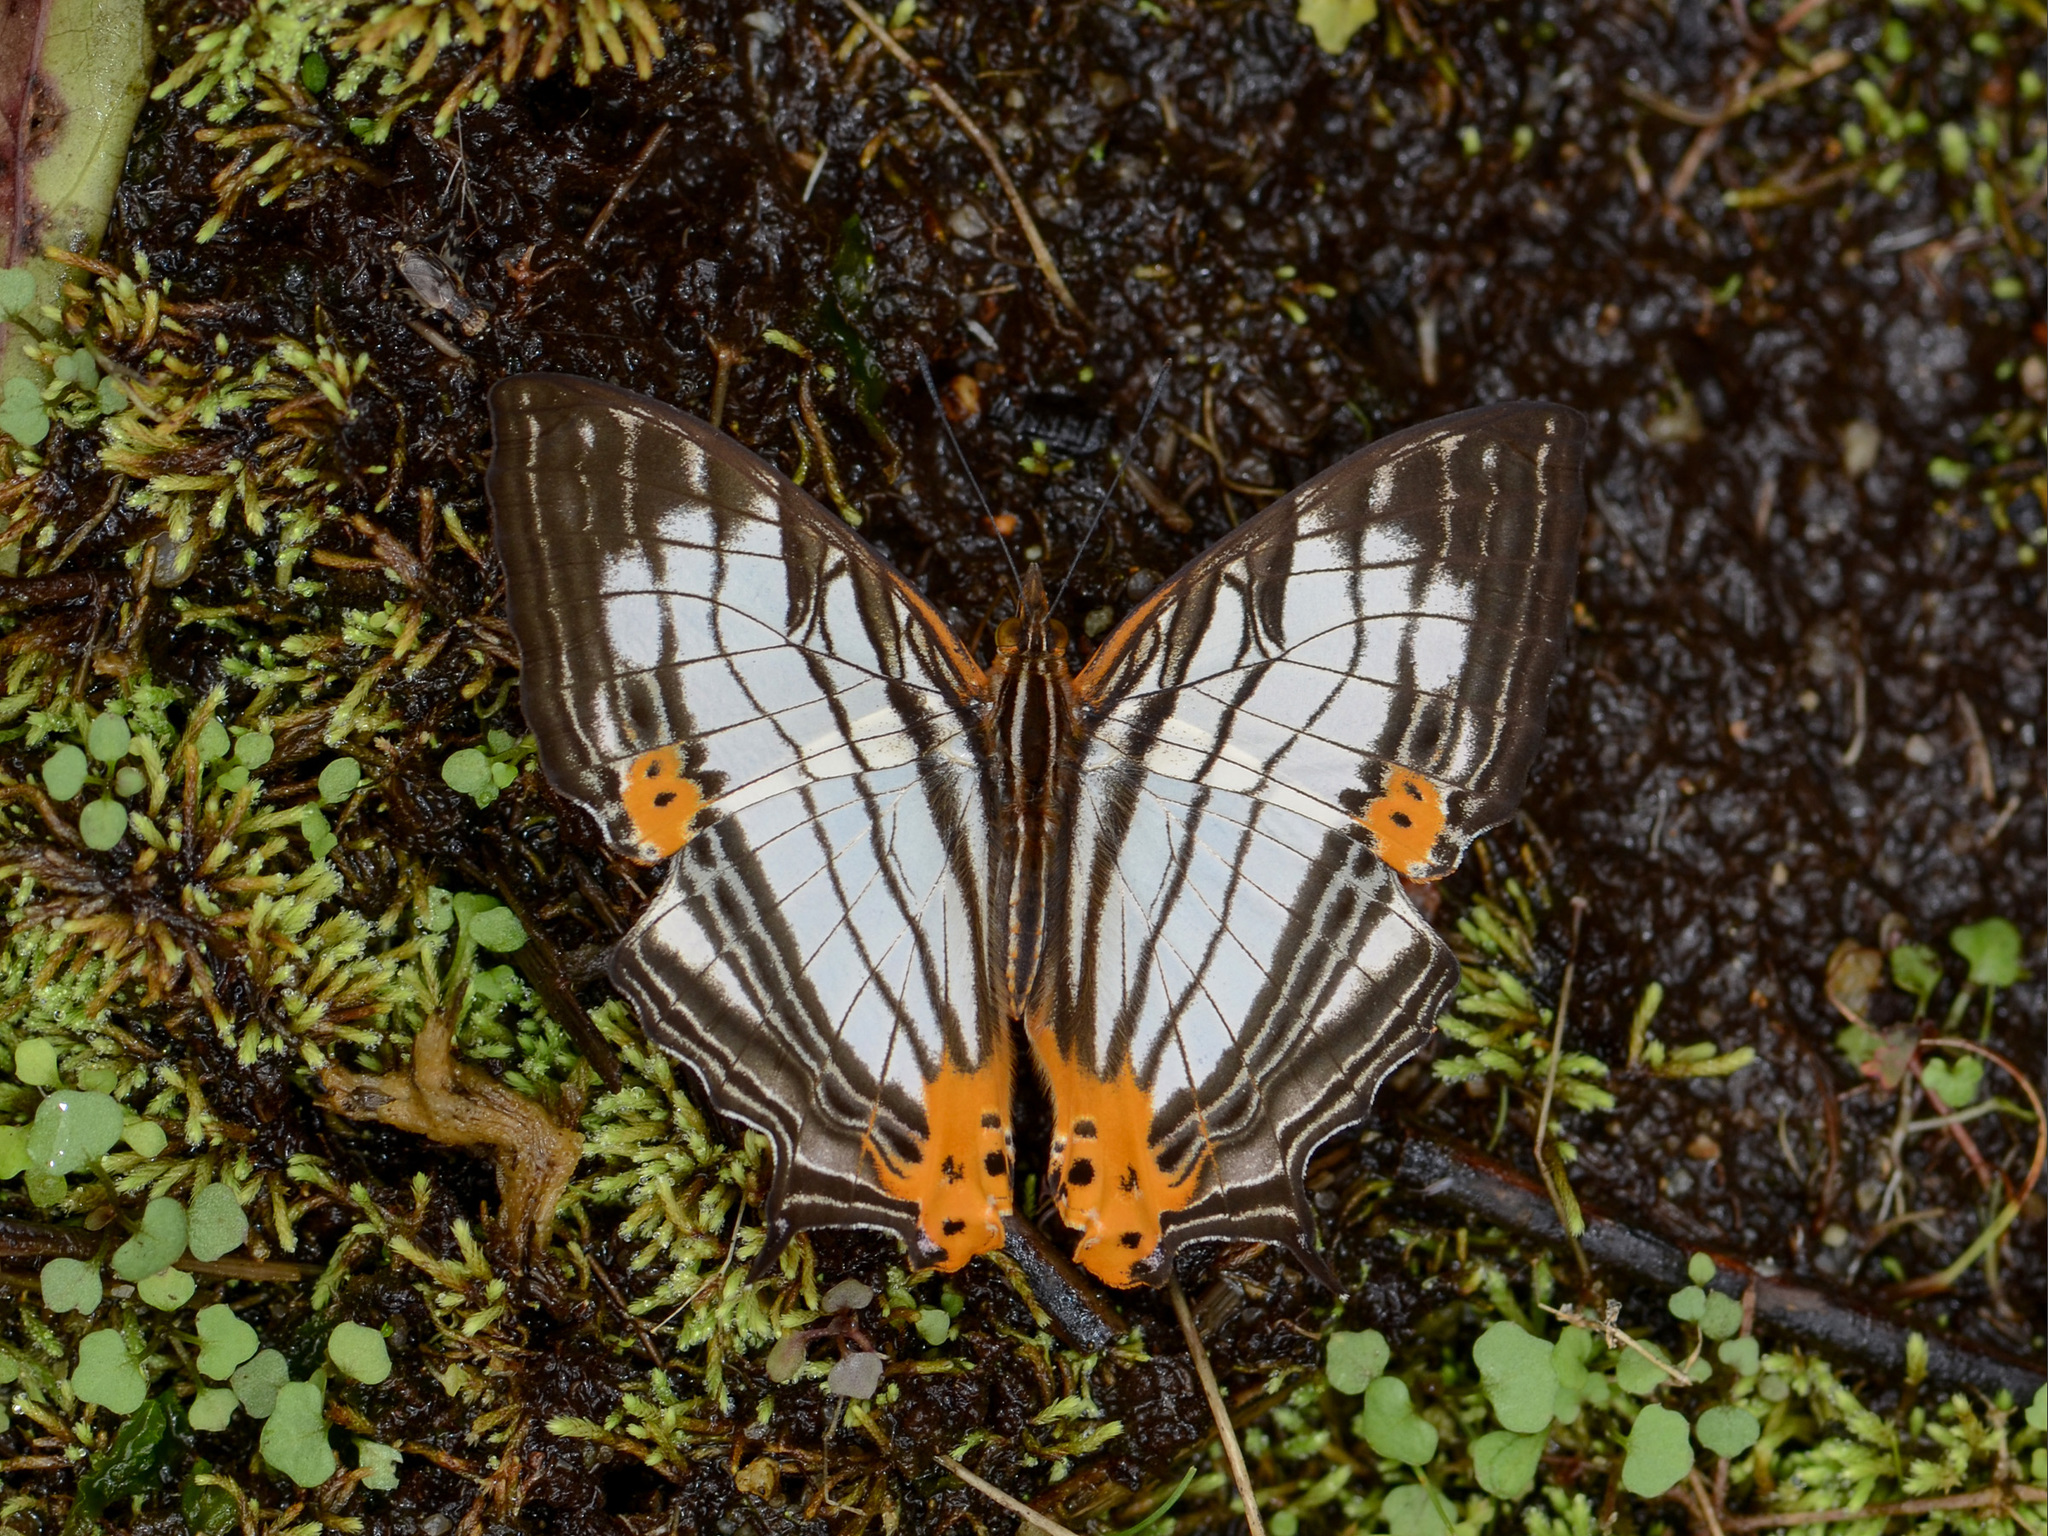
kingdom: Animalia
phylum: Arthropoda
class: Insecta
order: Lepidoptera
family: Nymphalidae
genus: Cyrestis
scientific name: Cyrestis maenalis
